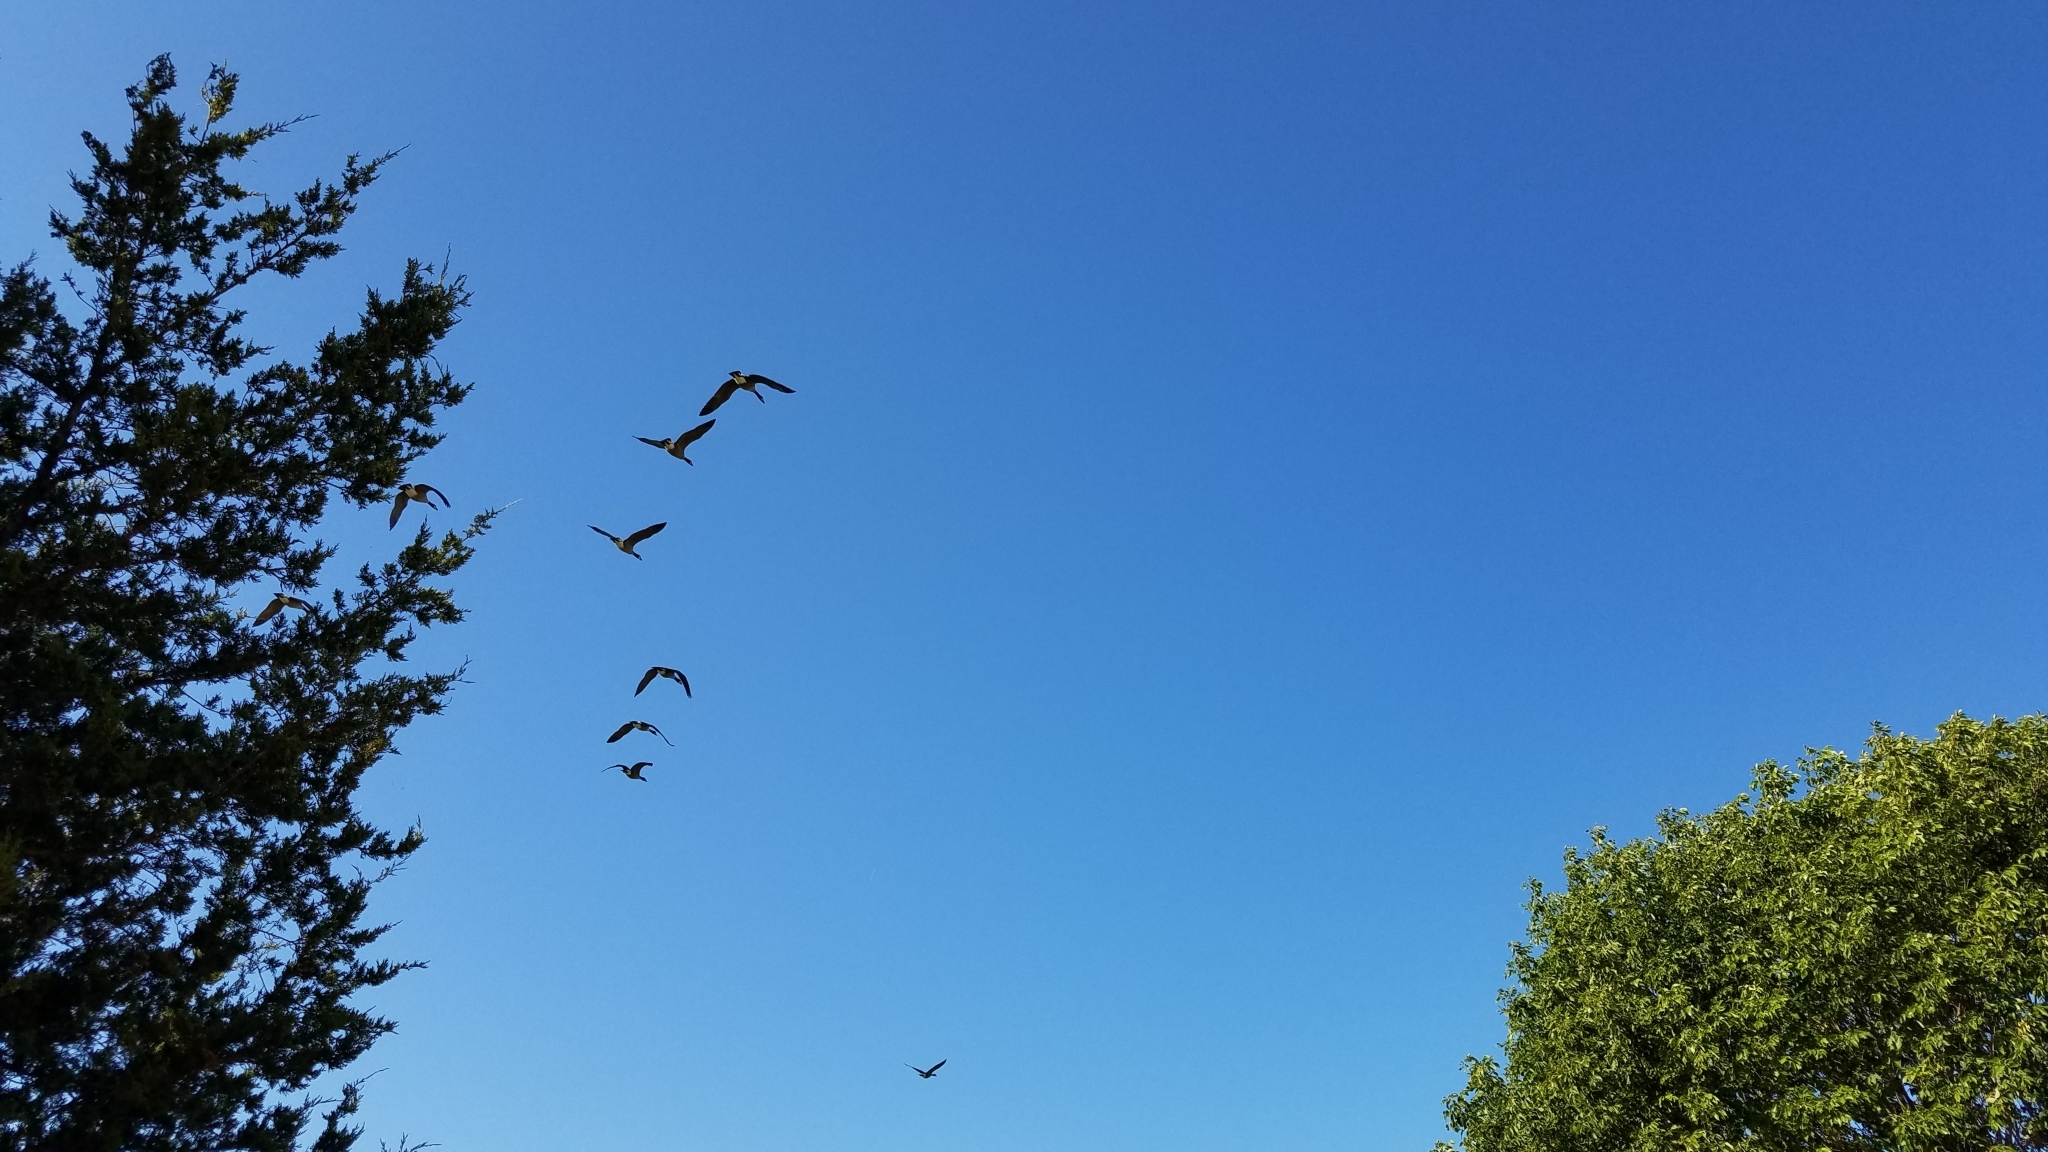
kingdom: Animalia
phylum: Chordata
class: Aves
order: Anseriformes
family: Anatidae
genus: Branta
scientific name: Branta canadensis
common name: Canada goose
